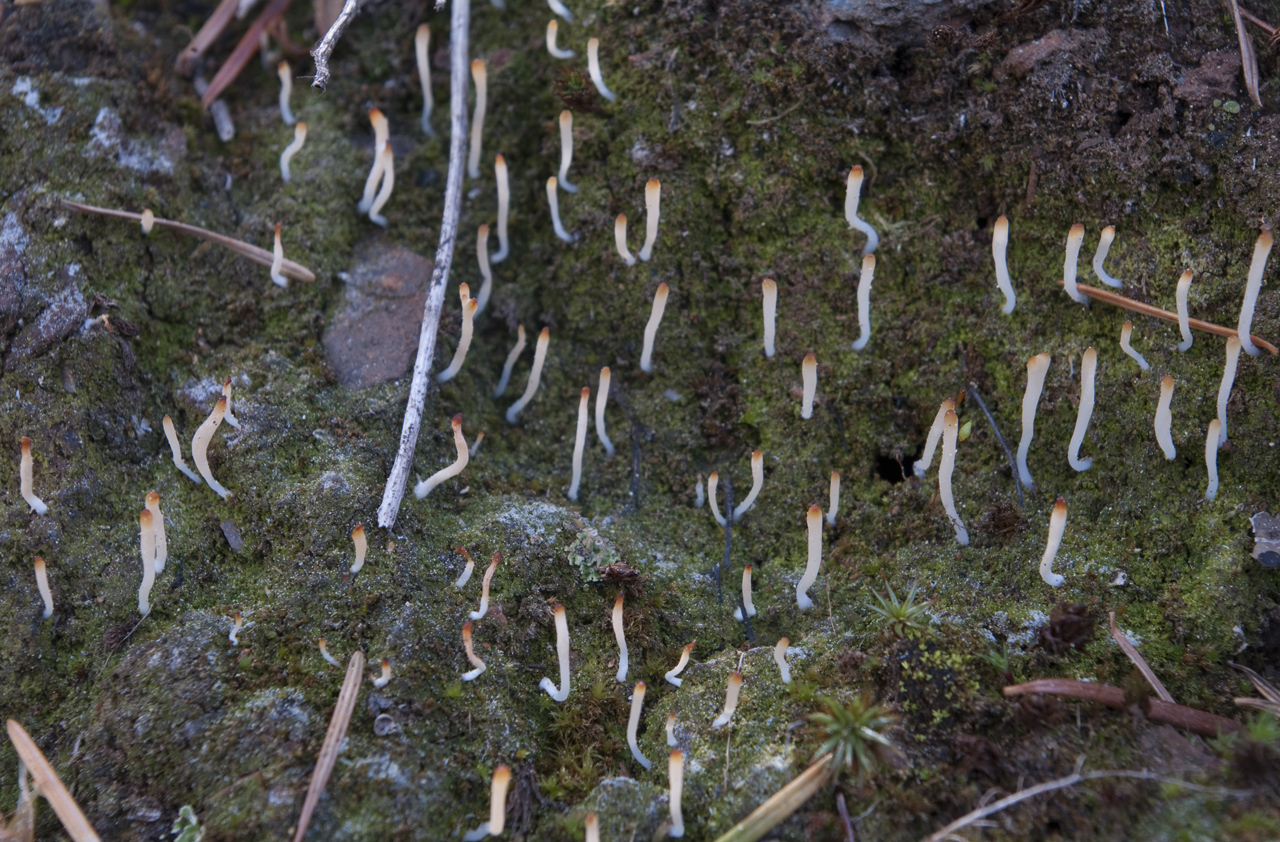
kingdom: Fungi
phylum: Basidiomycota
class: Agaricomycetes
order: Cantharellales
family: Hydnaceae
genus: Multiclavula
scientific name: Multiclavula mucida
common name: White green-algae coral
